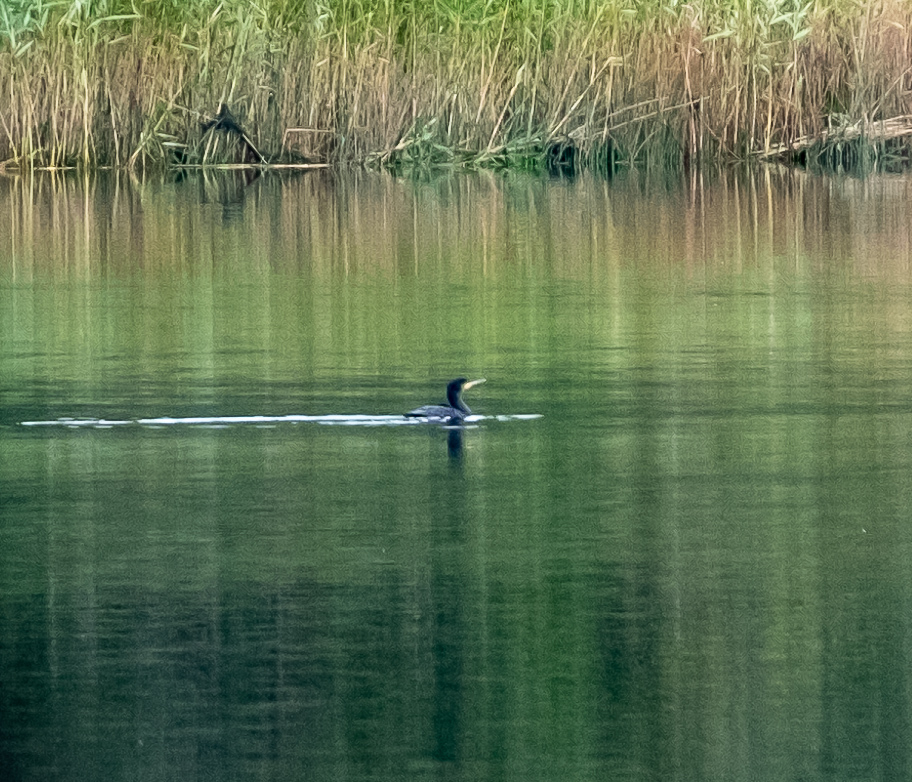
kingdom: Animalia
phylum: Chordata
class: Aves
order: Suliformes
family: Phalacrocoracidae
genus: Phalacrocorax
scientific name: Phalacrocorax carbo
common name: Great cormorant
